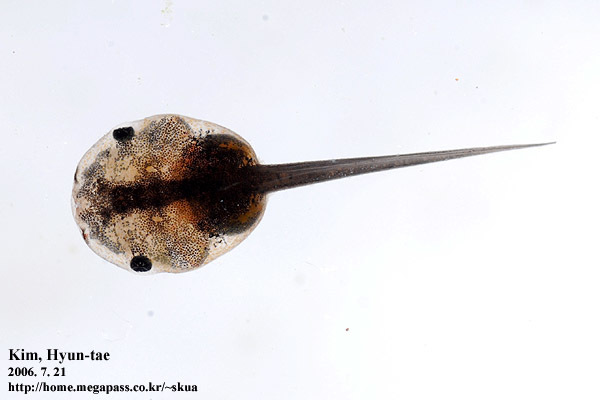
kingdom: Animalia
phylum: Chordata
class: Amphibia
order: Anura
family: Microhylidae
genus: Kaloula
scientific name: Kaloula borealis
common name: Boreal digging frog
